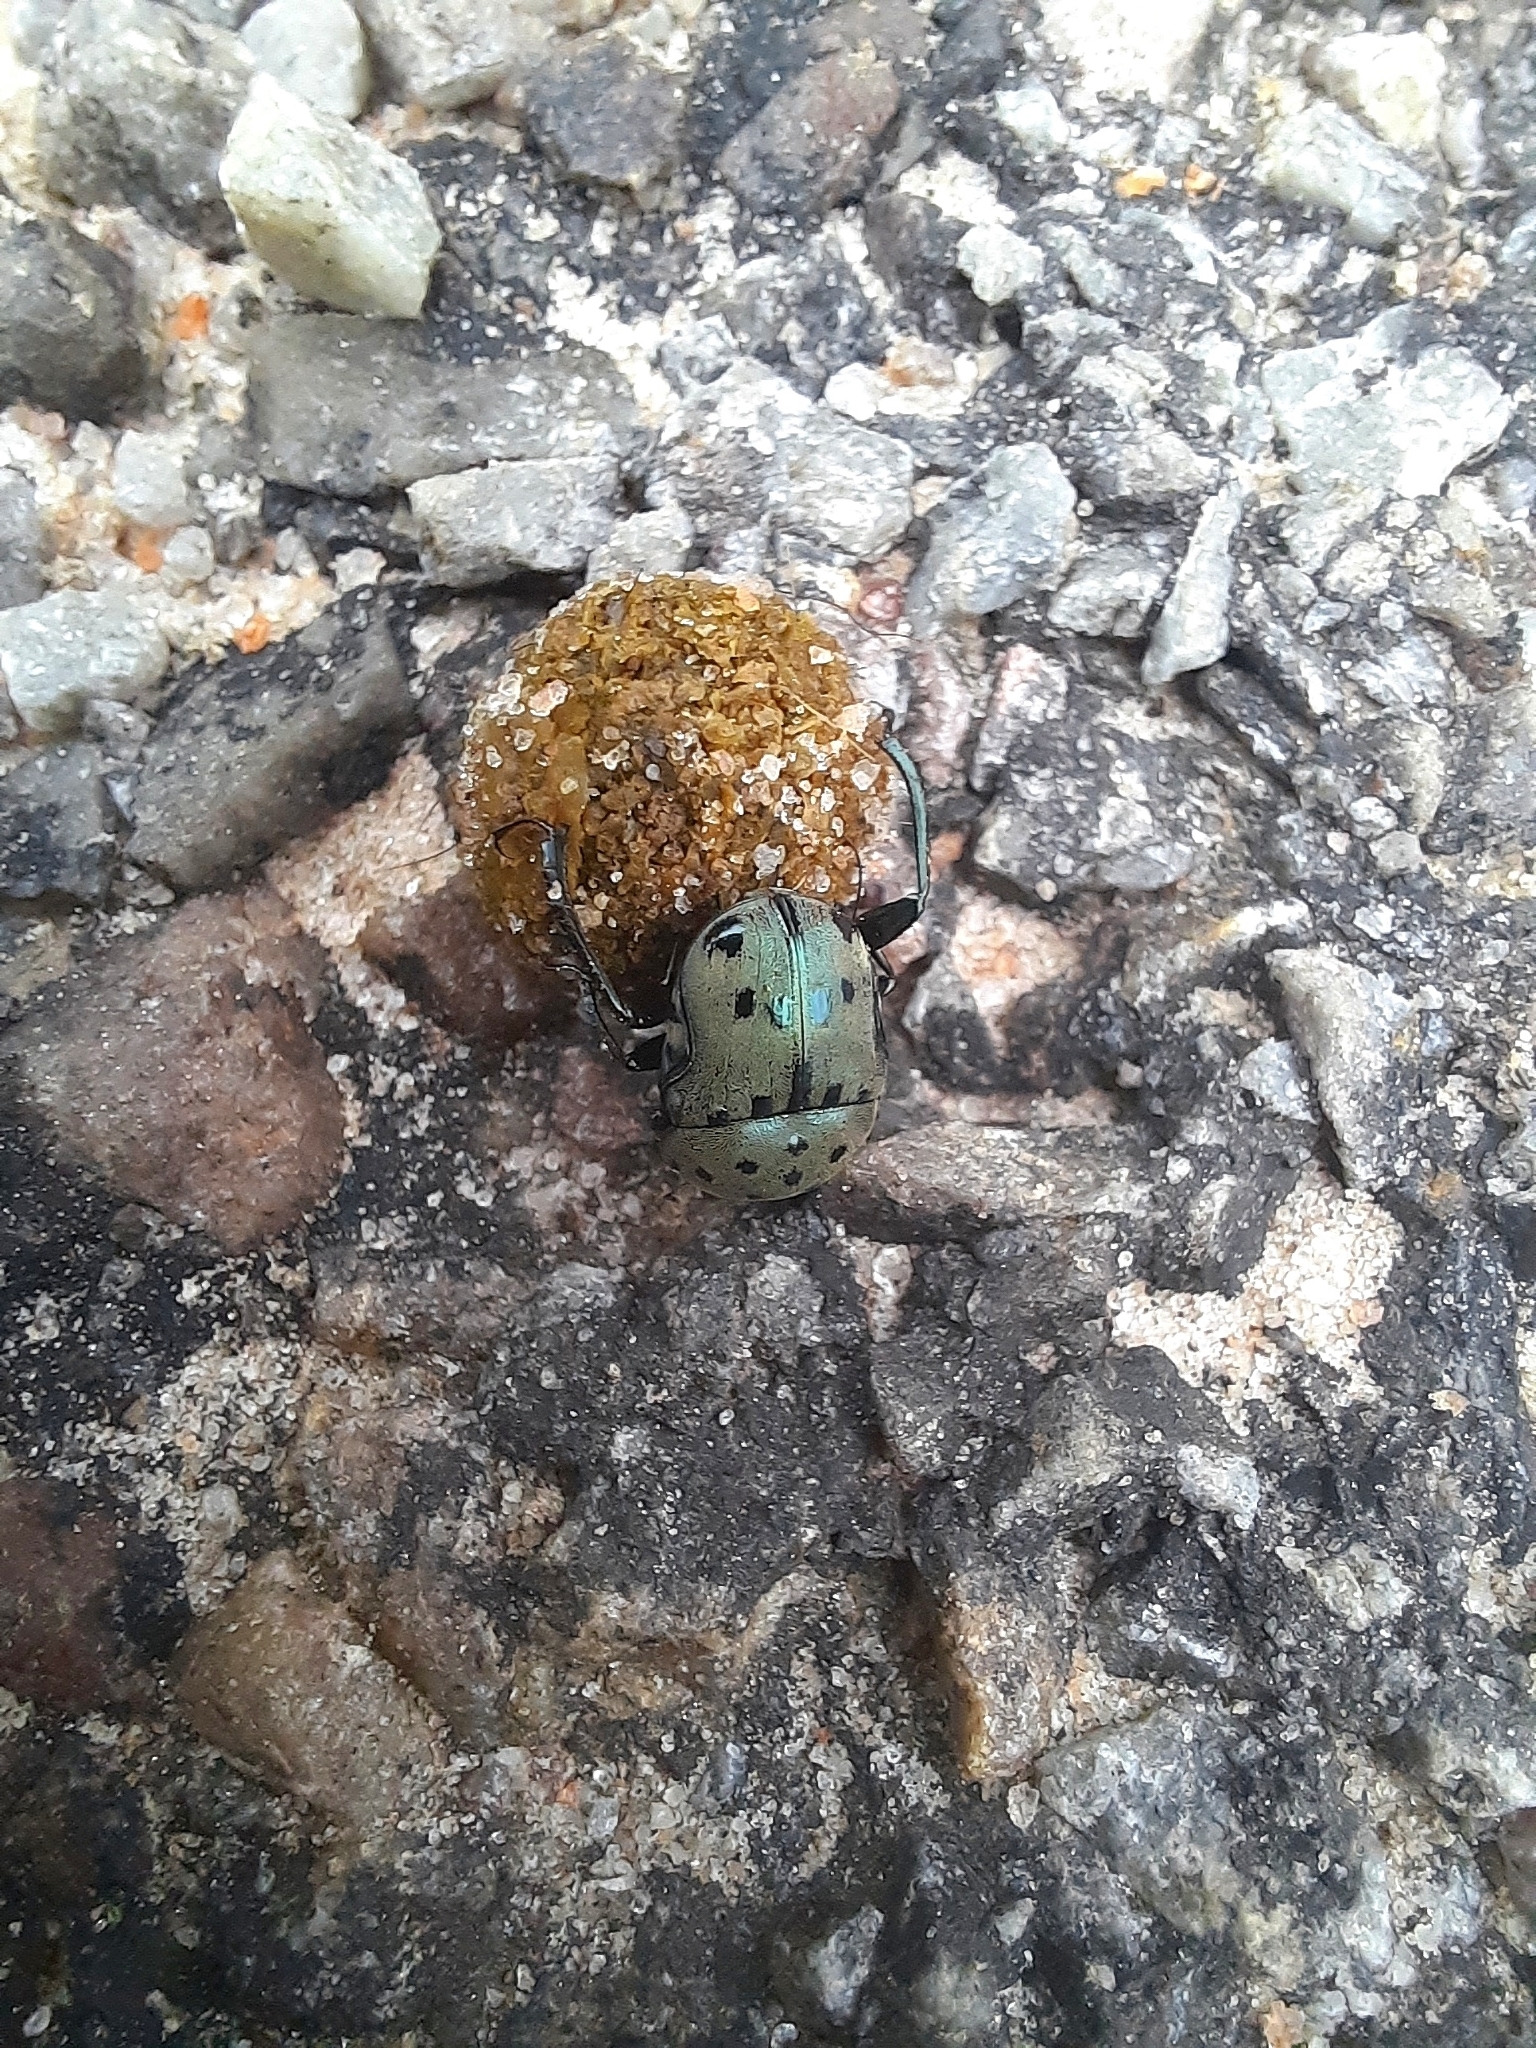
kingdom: Animalia
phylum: Arthropoda
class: Insecta
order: Coleoptera
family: Scarabaeidae
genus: Gymnopleurus
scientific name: Gymnopleurus miliaris
